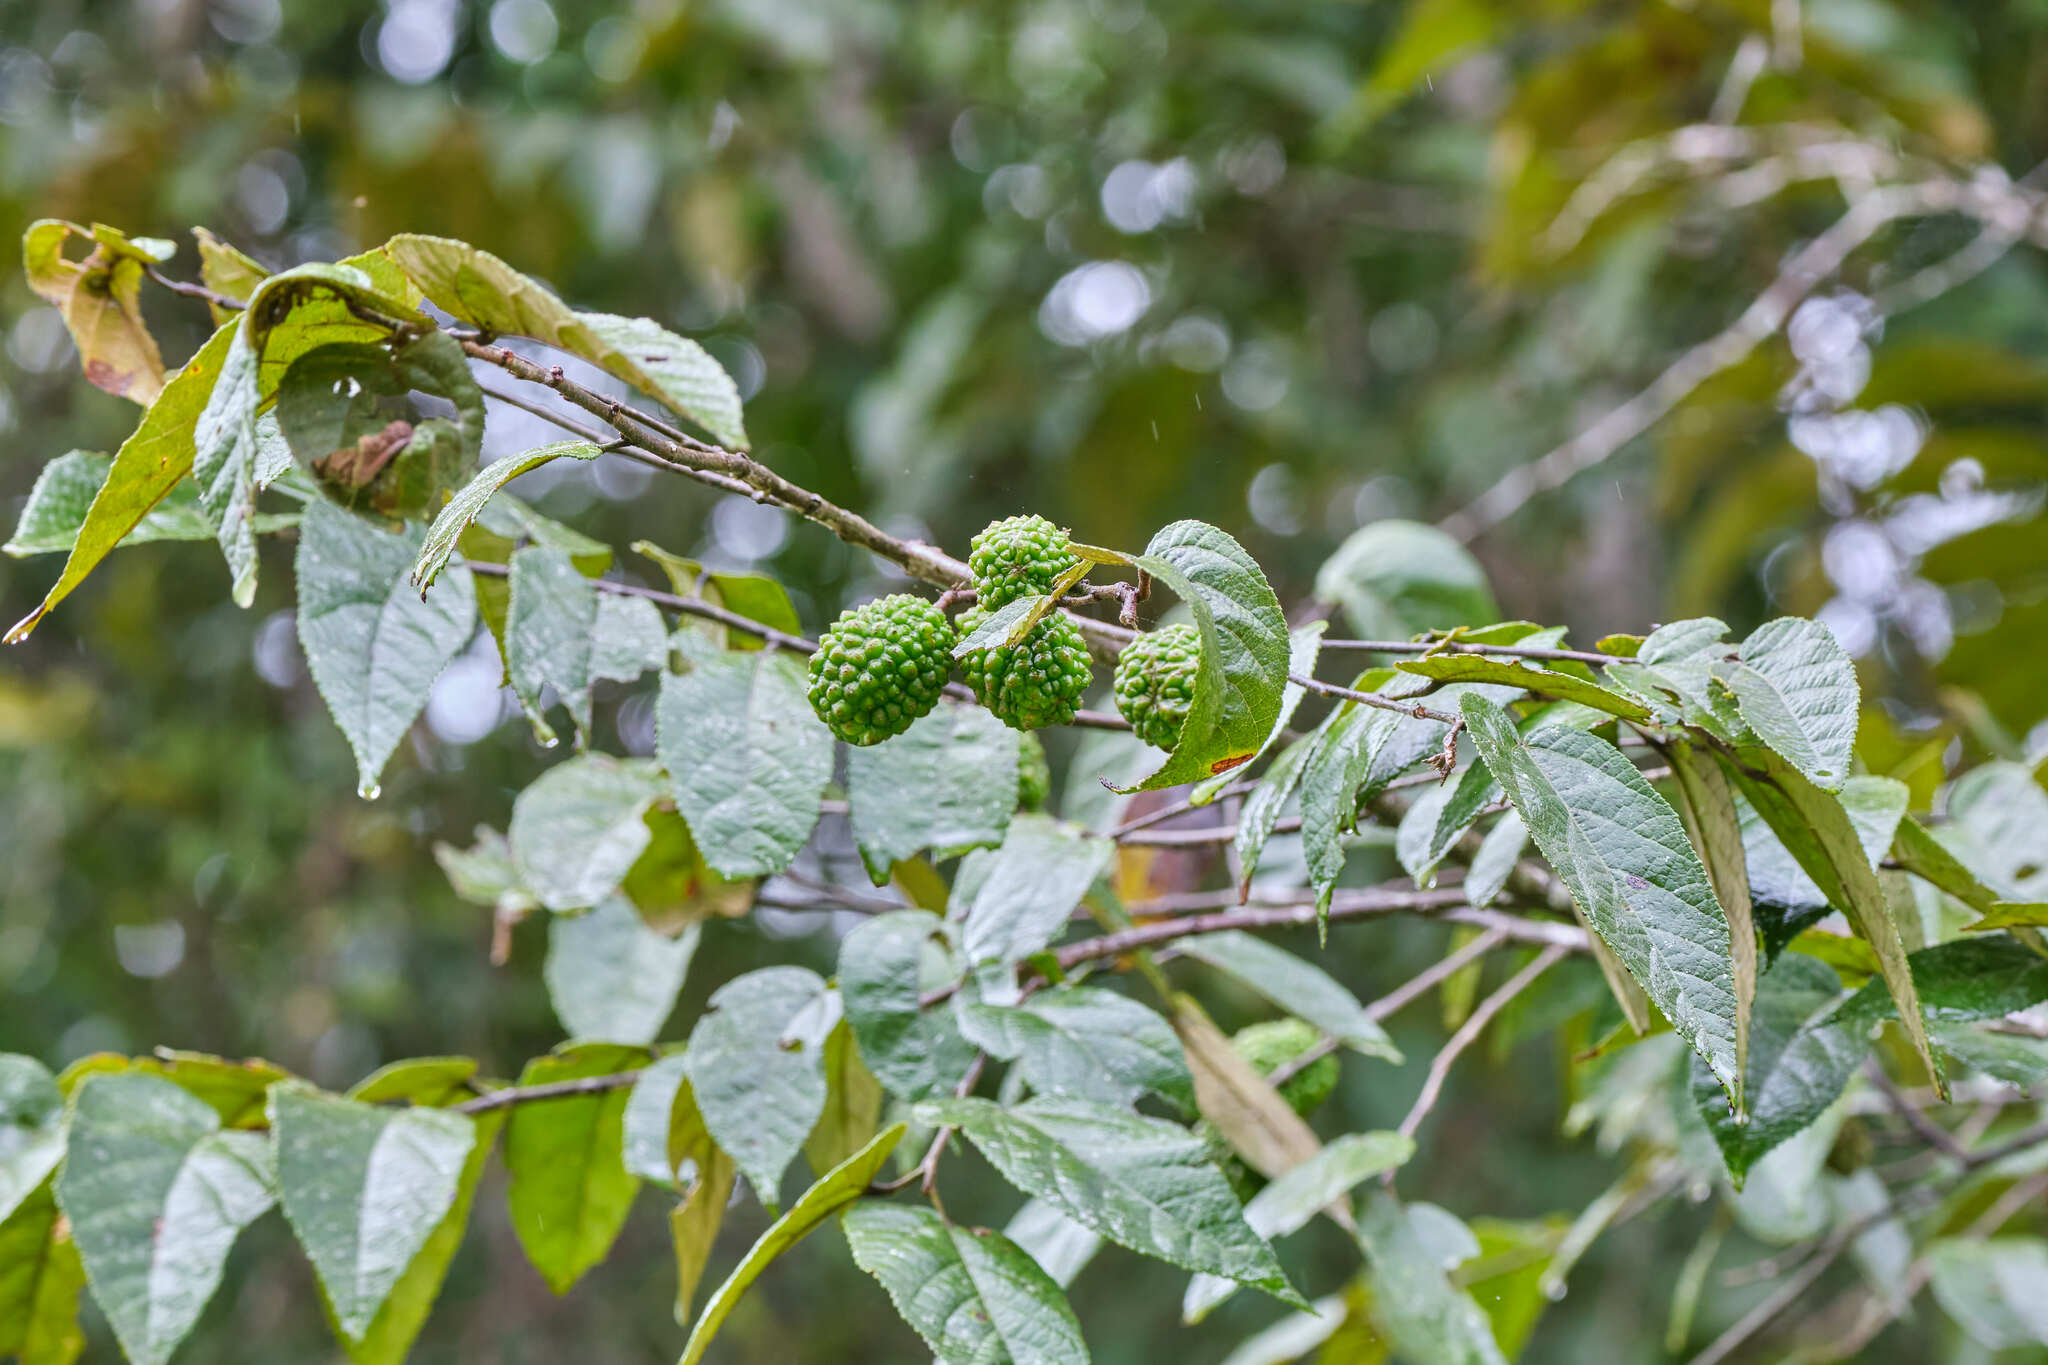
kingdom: Plantae
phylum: Tracheophyta
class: Magnoliopsida
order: Malvales
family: Malvaceae
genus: Guazuma
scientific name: Guazuma ulmifolia
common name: Bastard-cedar
